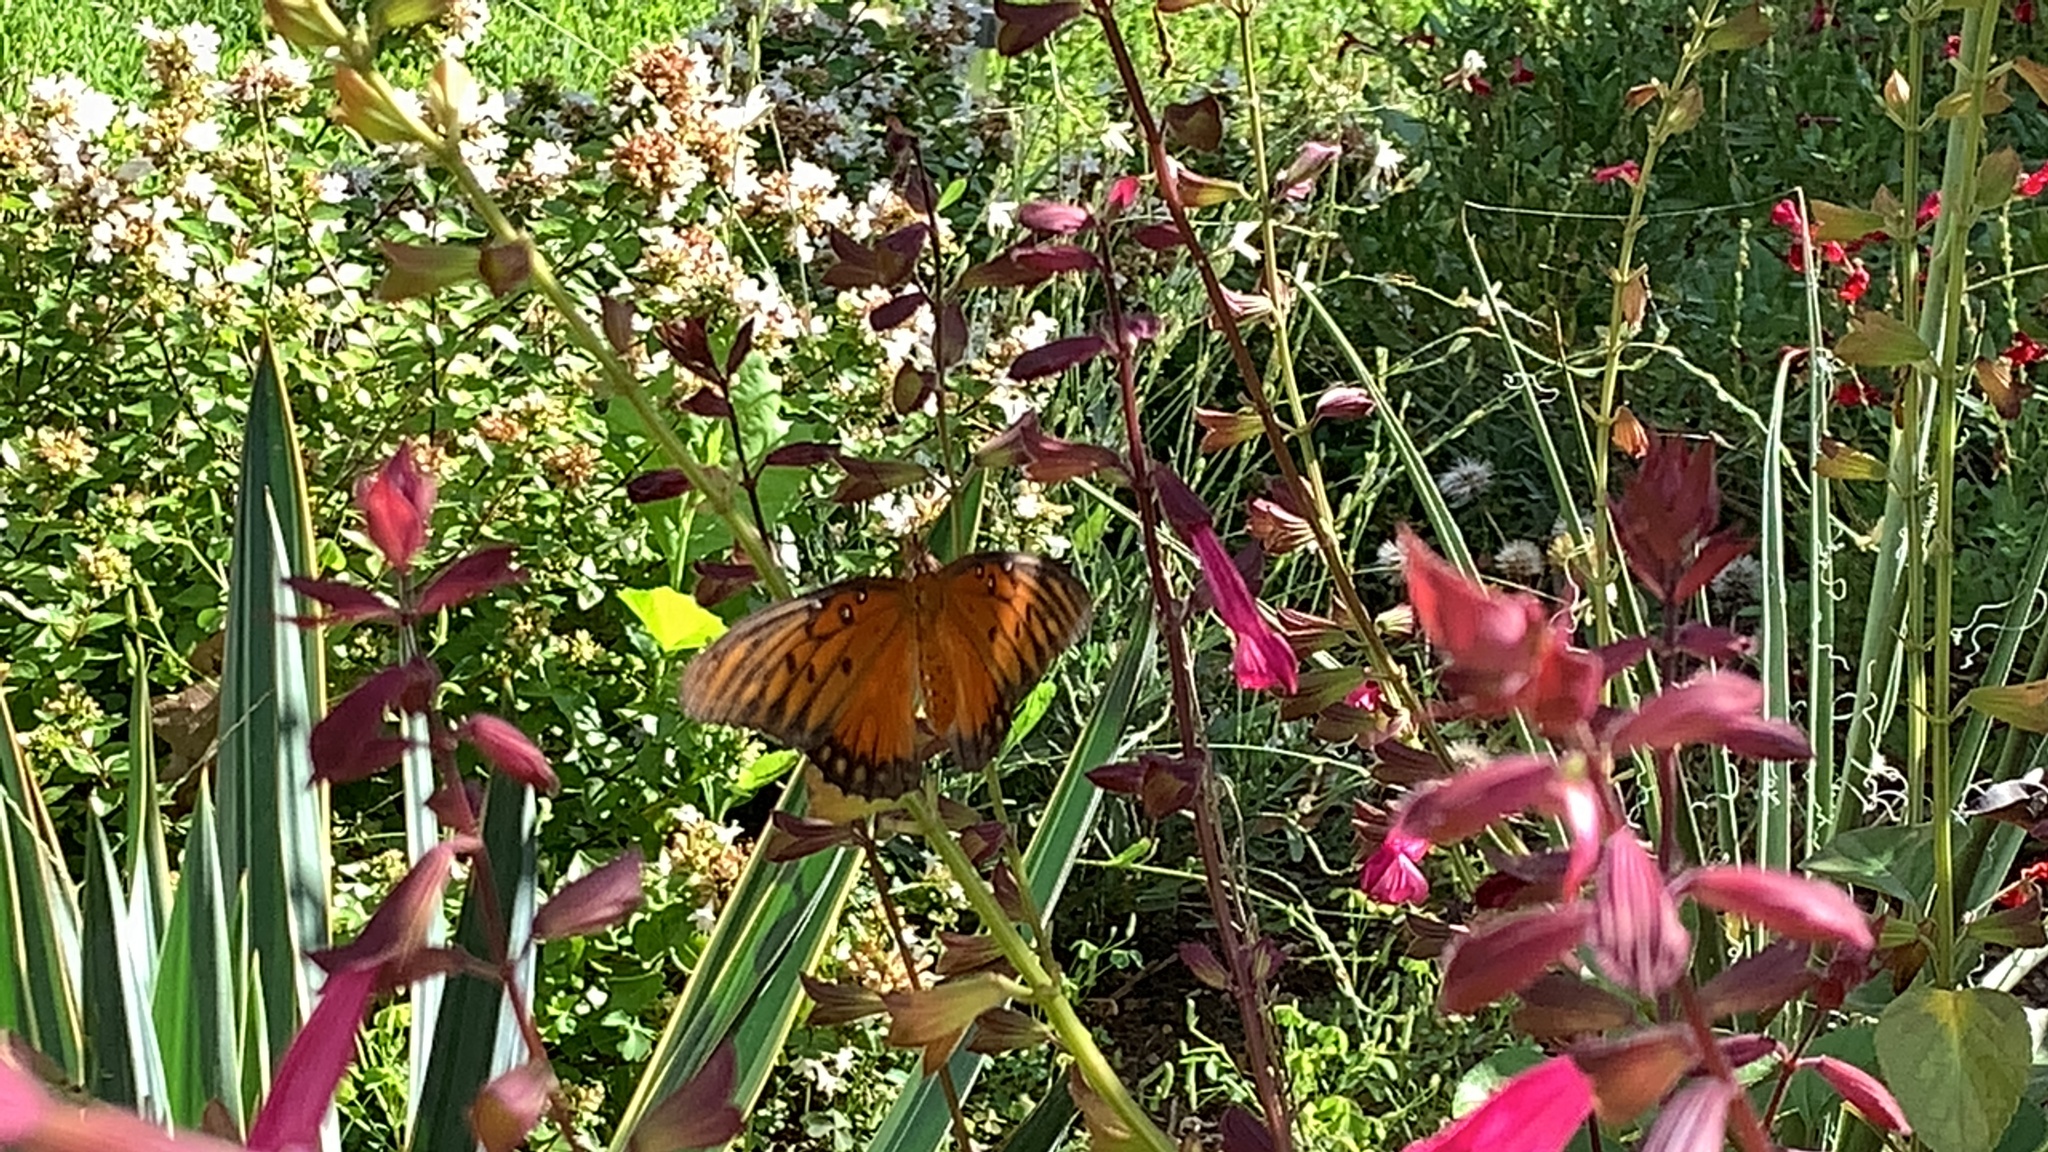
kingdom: Animalia
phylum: Arthropoda
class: Insecta
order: Lepidoptera
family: Nymphalidae
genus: Dione
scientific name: Dione vanillae
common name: Gulf fritillary
